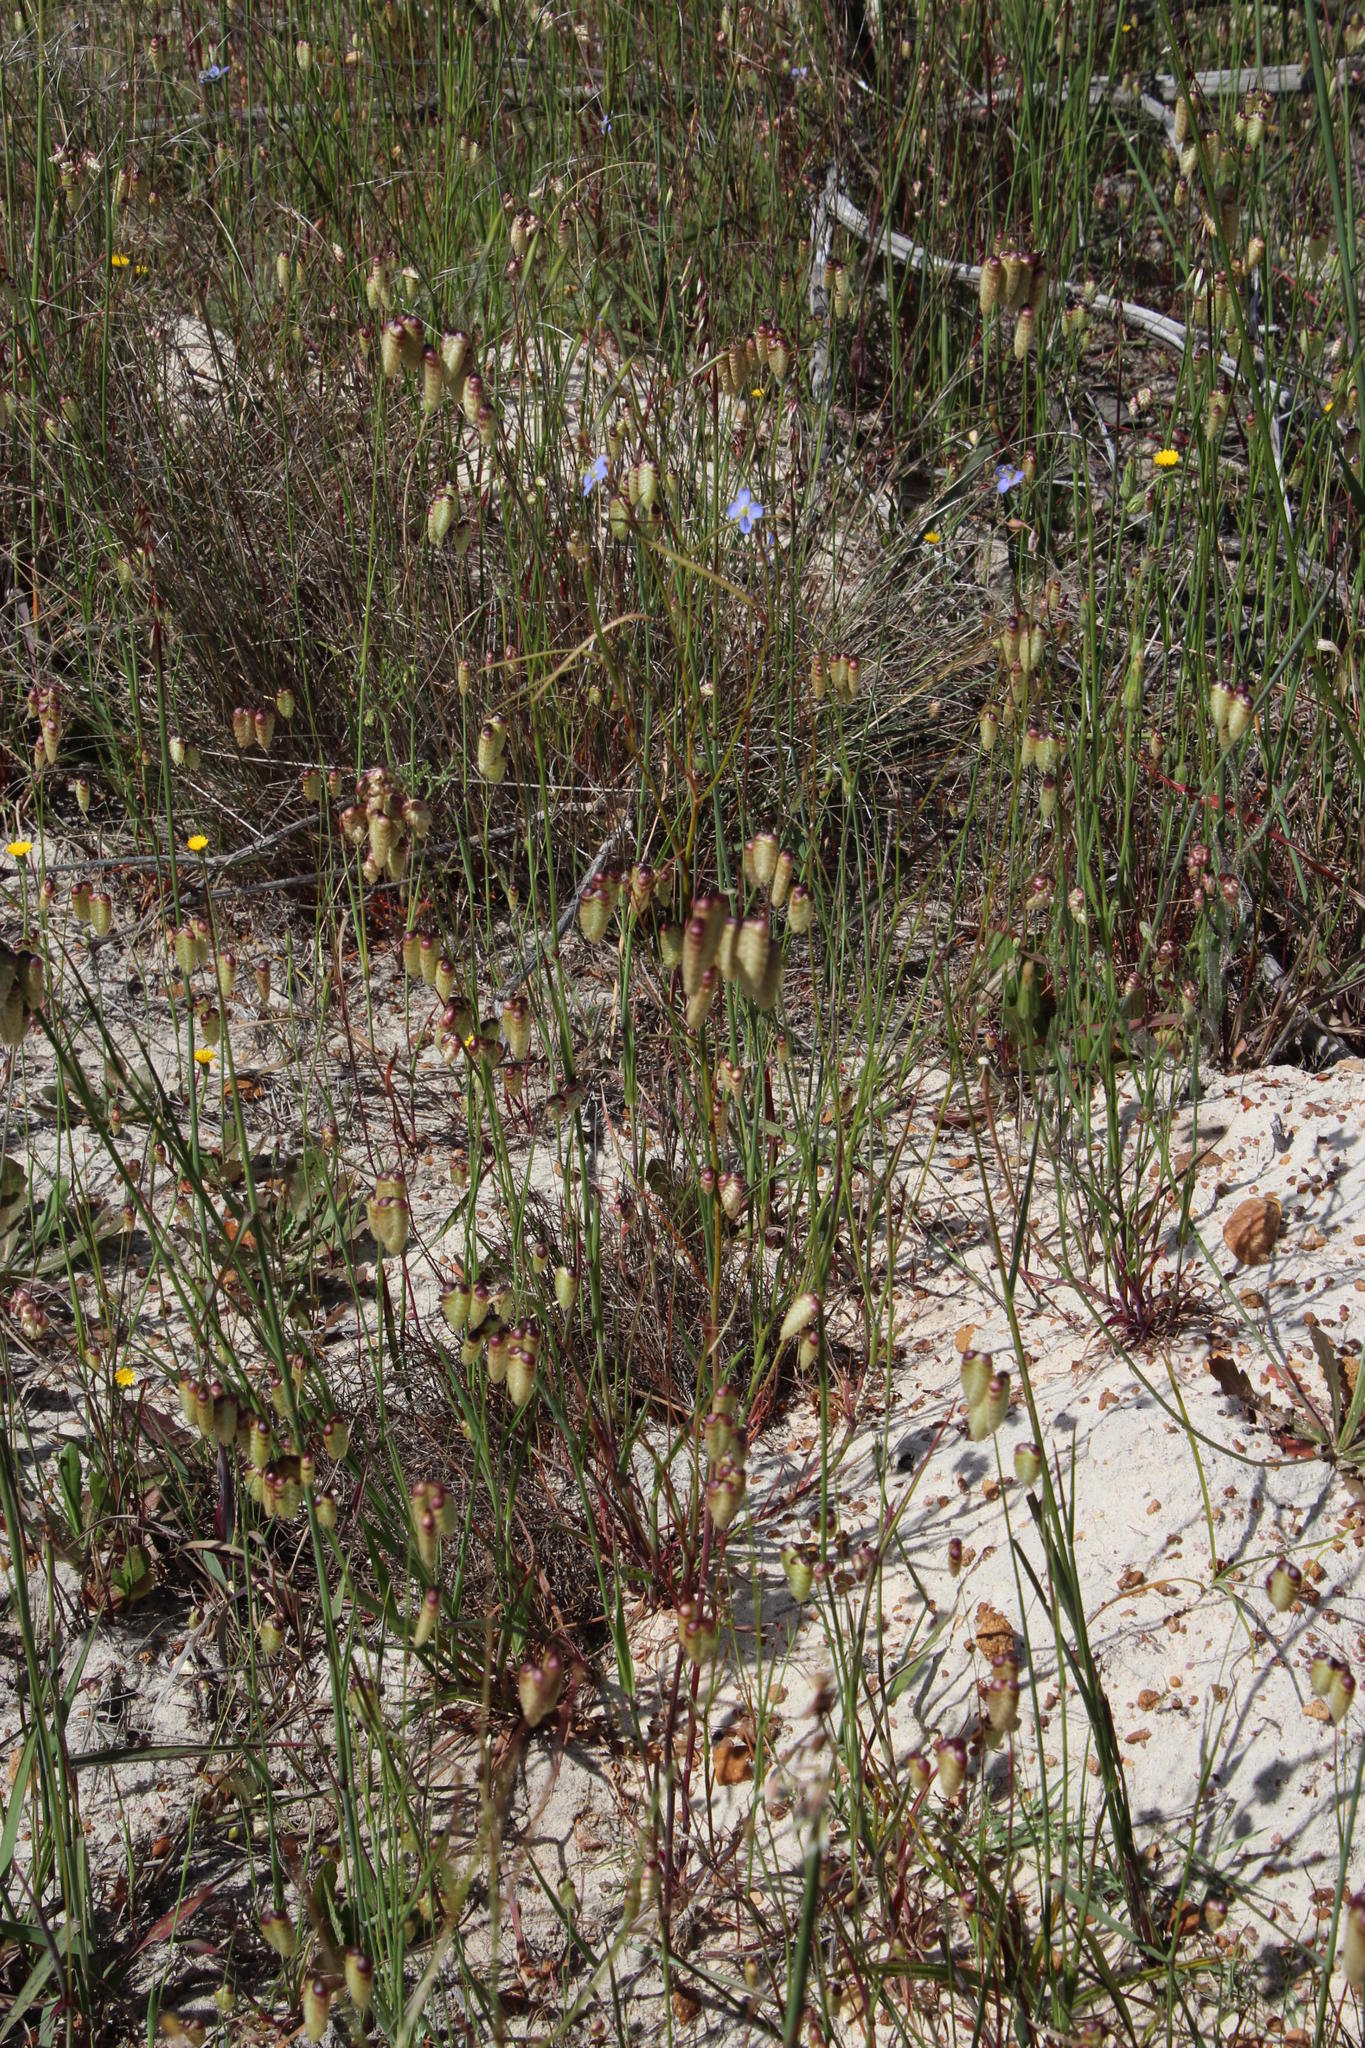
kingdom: Plantae
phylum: Tracheophyta
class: Magnoliopsida
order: Brassicales
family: Brassicaceae
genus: Heliophila
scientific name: Heliophila linoides
